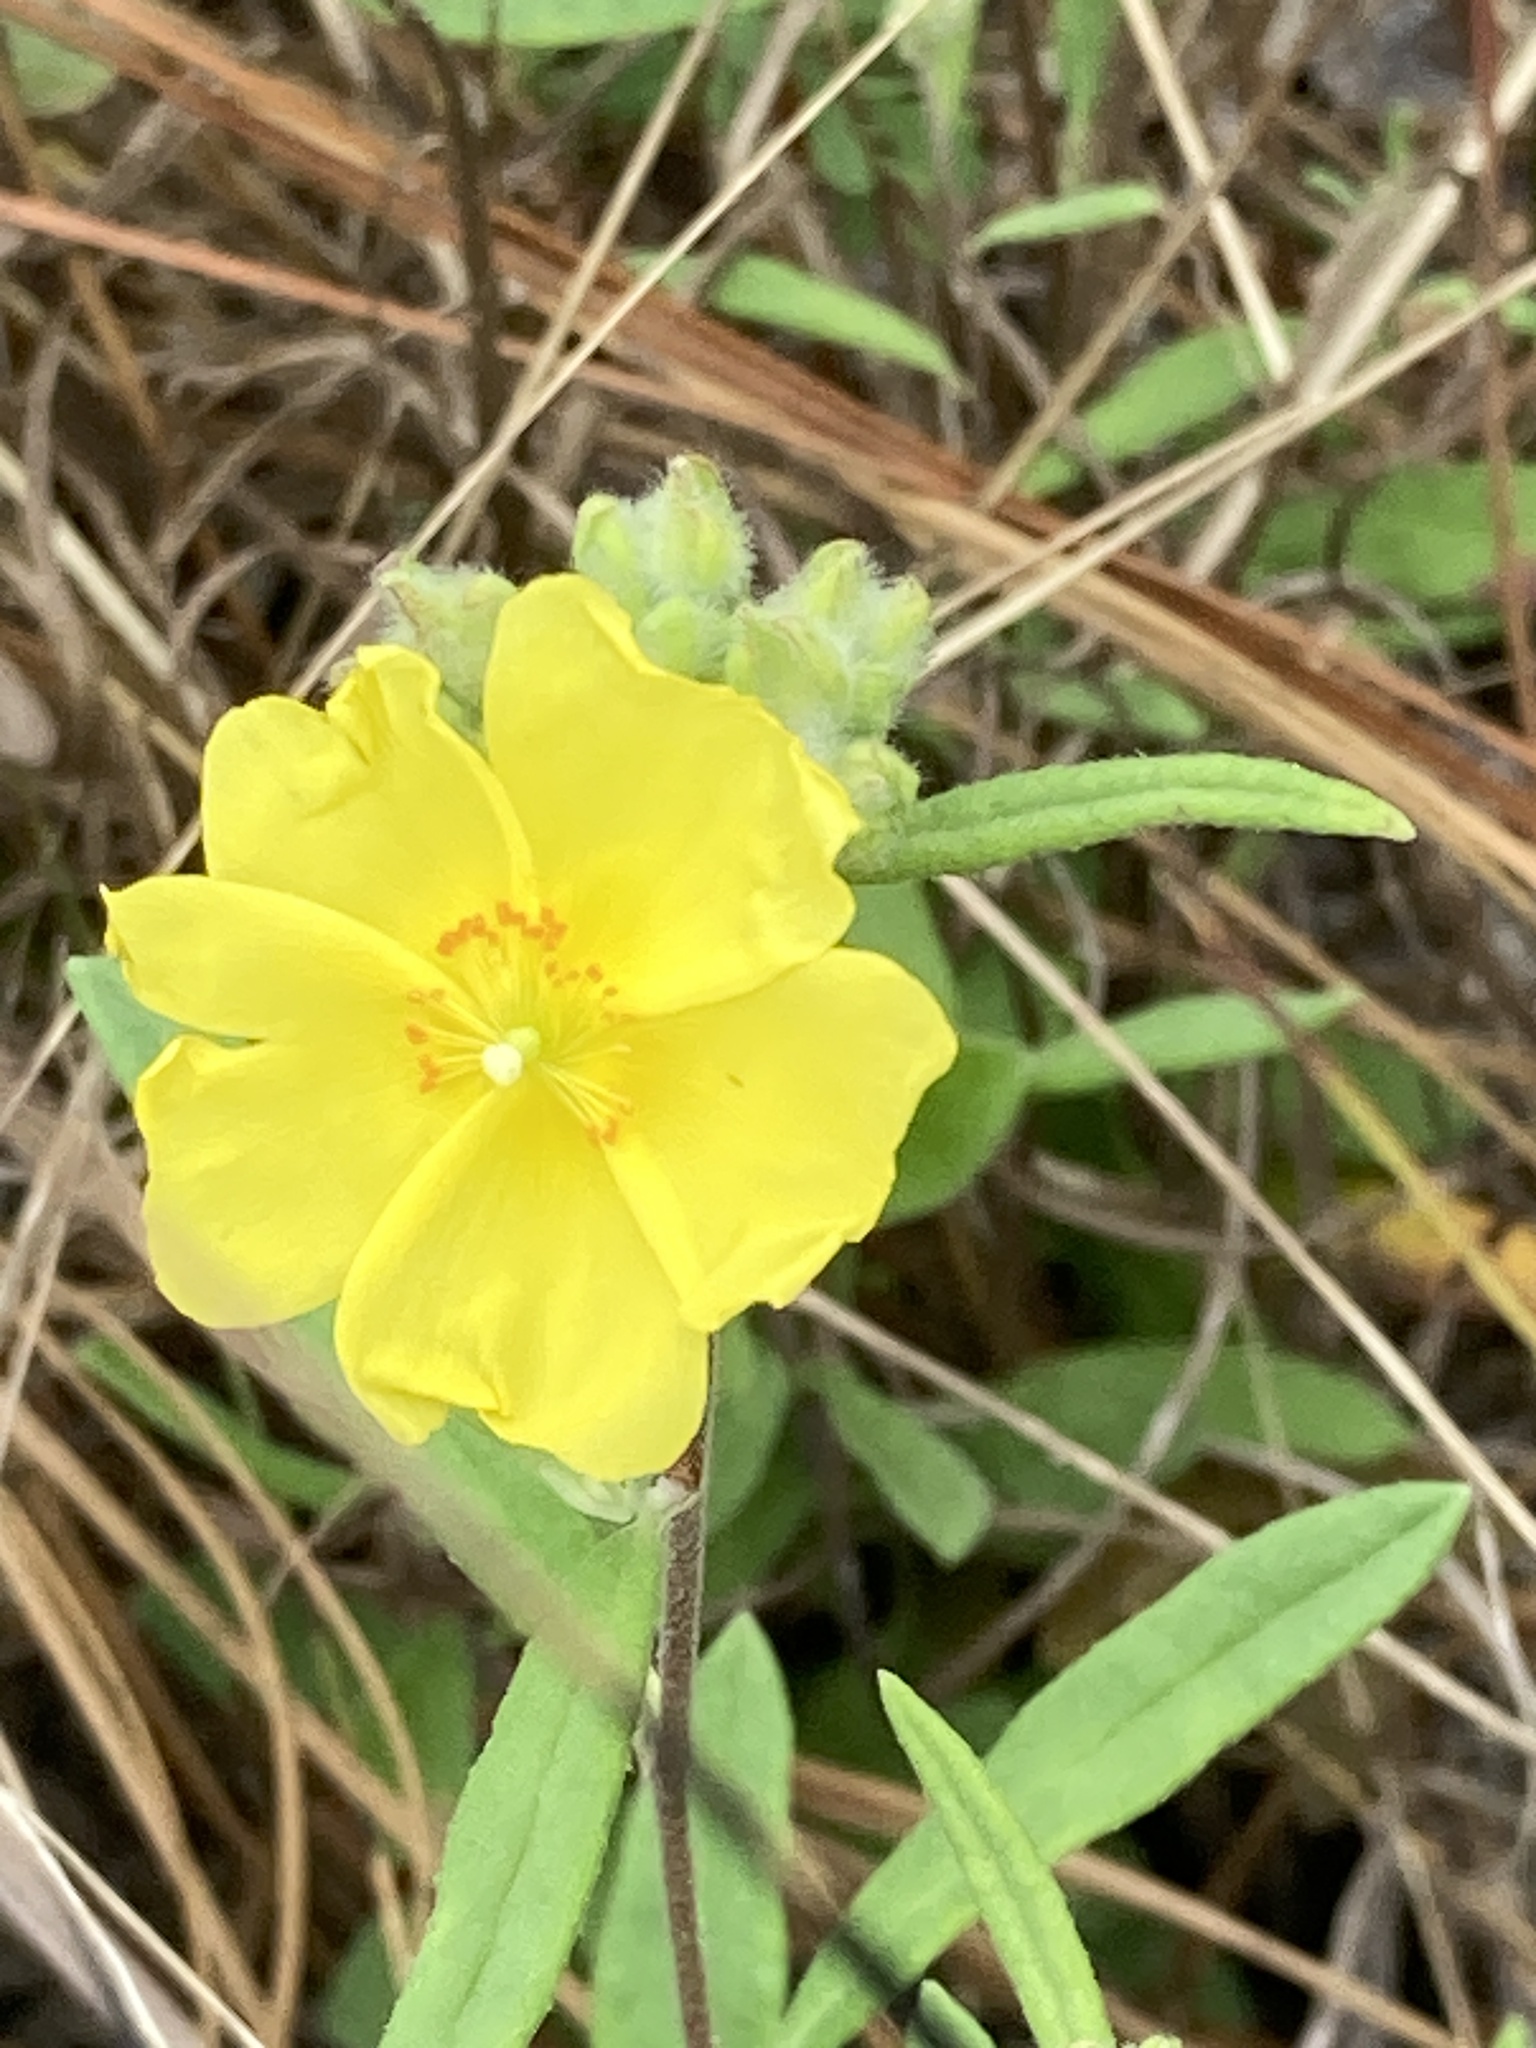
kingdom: Plantae
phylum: Tracheophyta
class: Magnoliopsida
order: Malvales
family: Cistaceae
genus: Crocanthemum
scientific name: Crocanthemum corymbosum
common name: Pinebarren sun-rose
